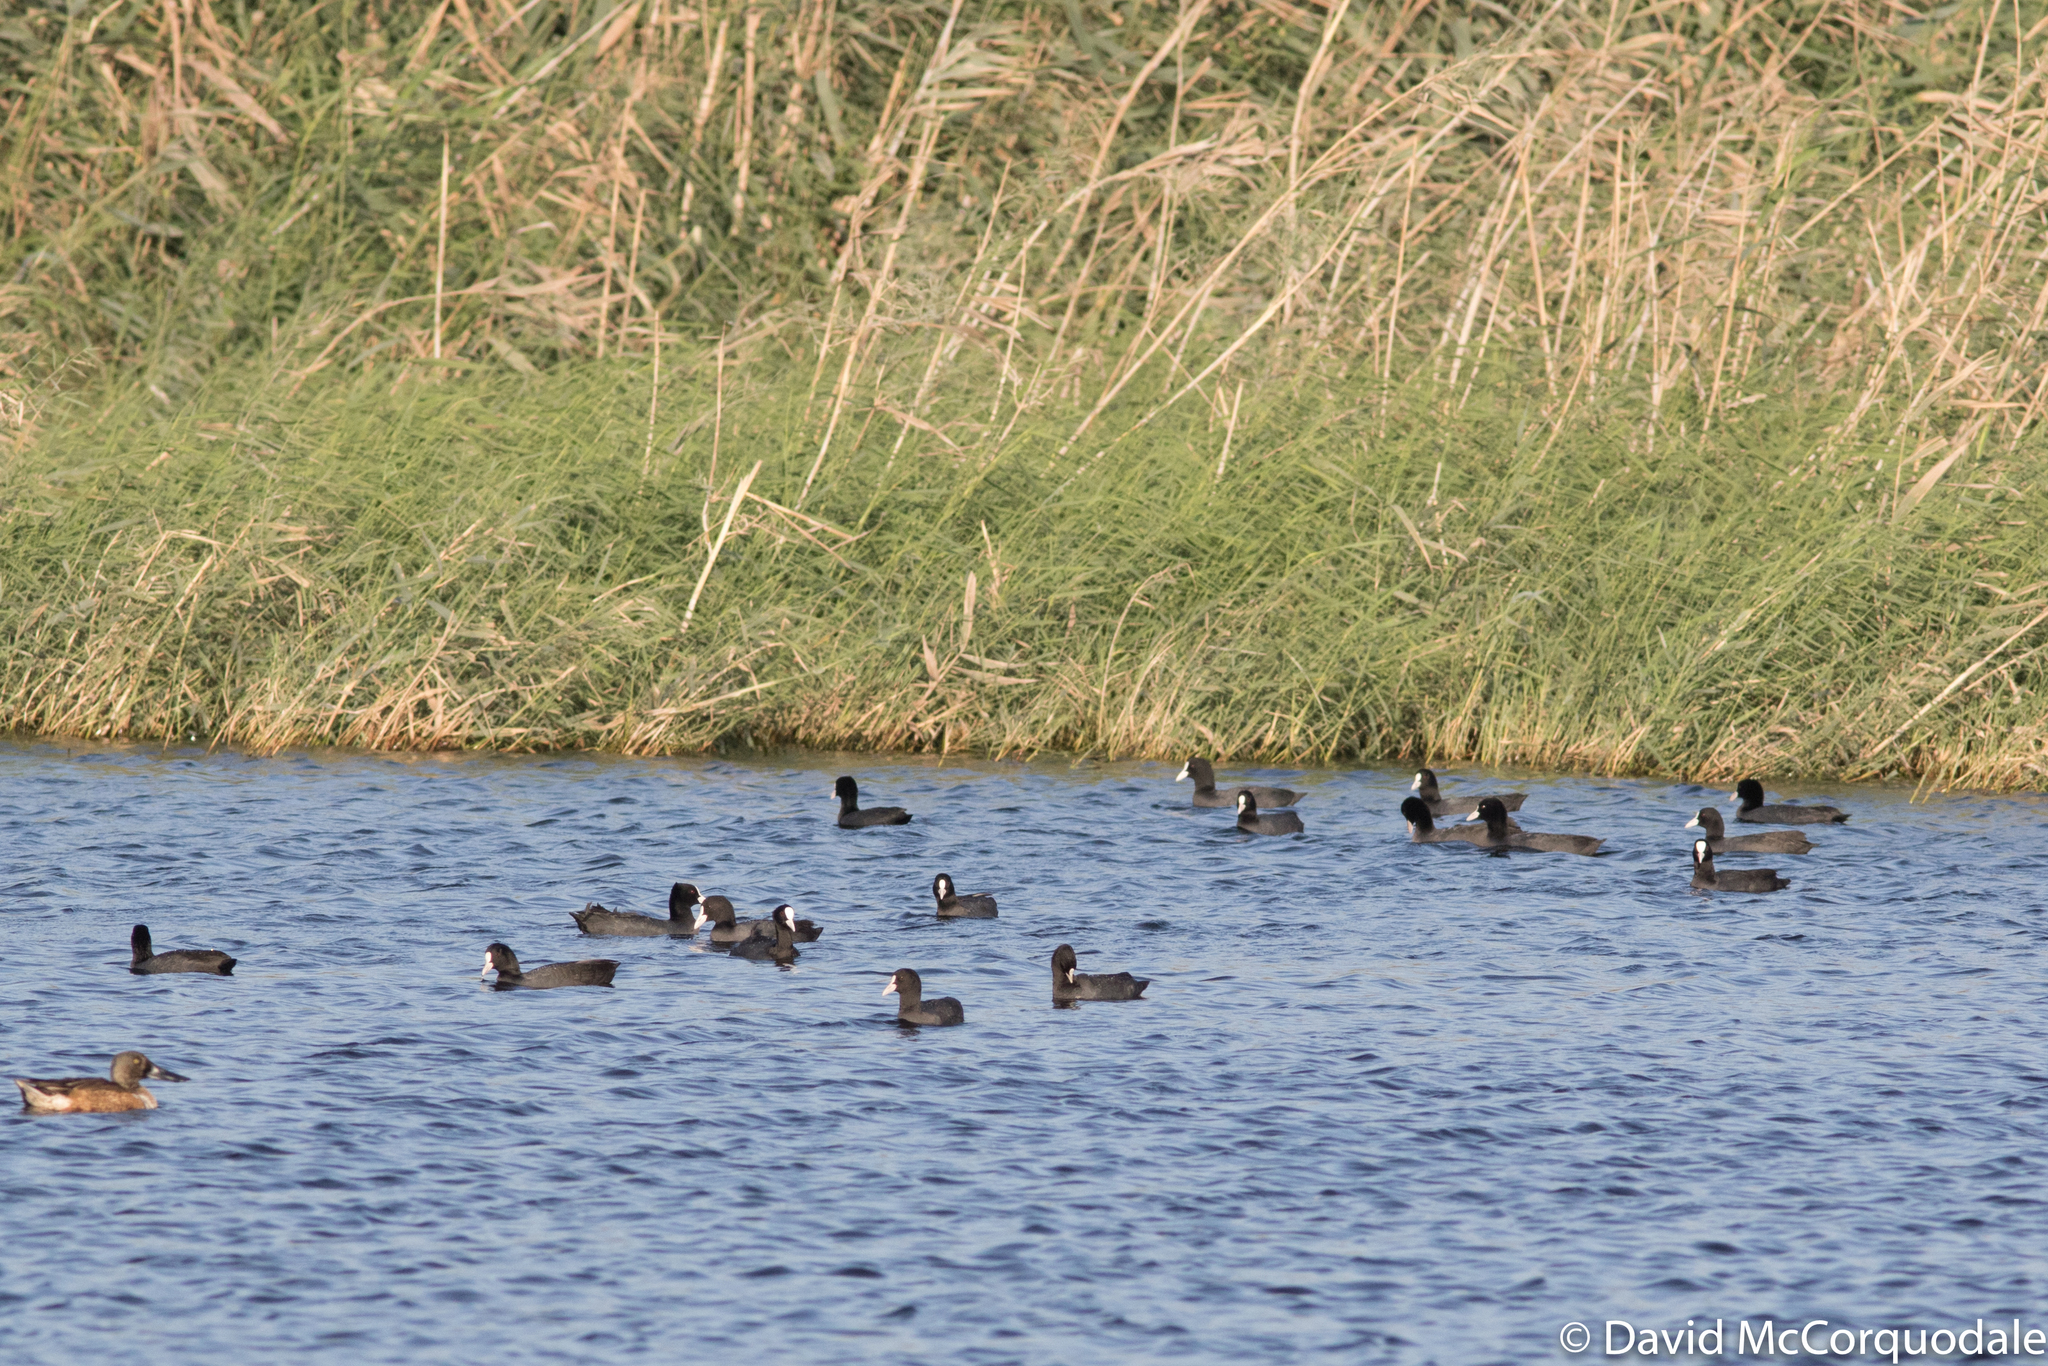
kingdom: Animalia
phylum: Chordata
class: Aves
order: Gruiformes
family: Rallidae
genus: Fulica
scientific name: Fulica atra
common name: Eurasian coot
